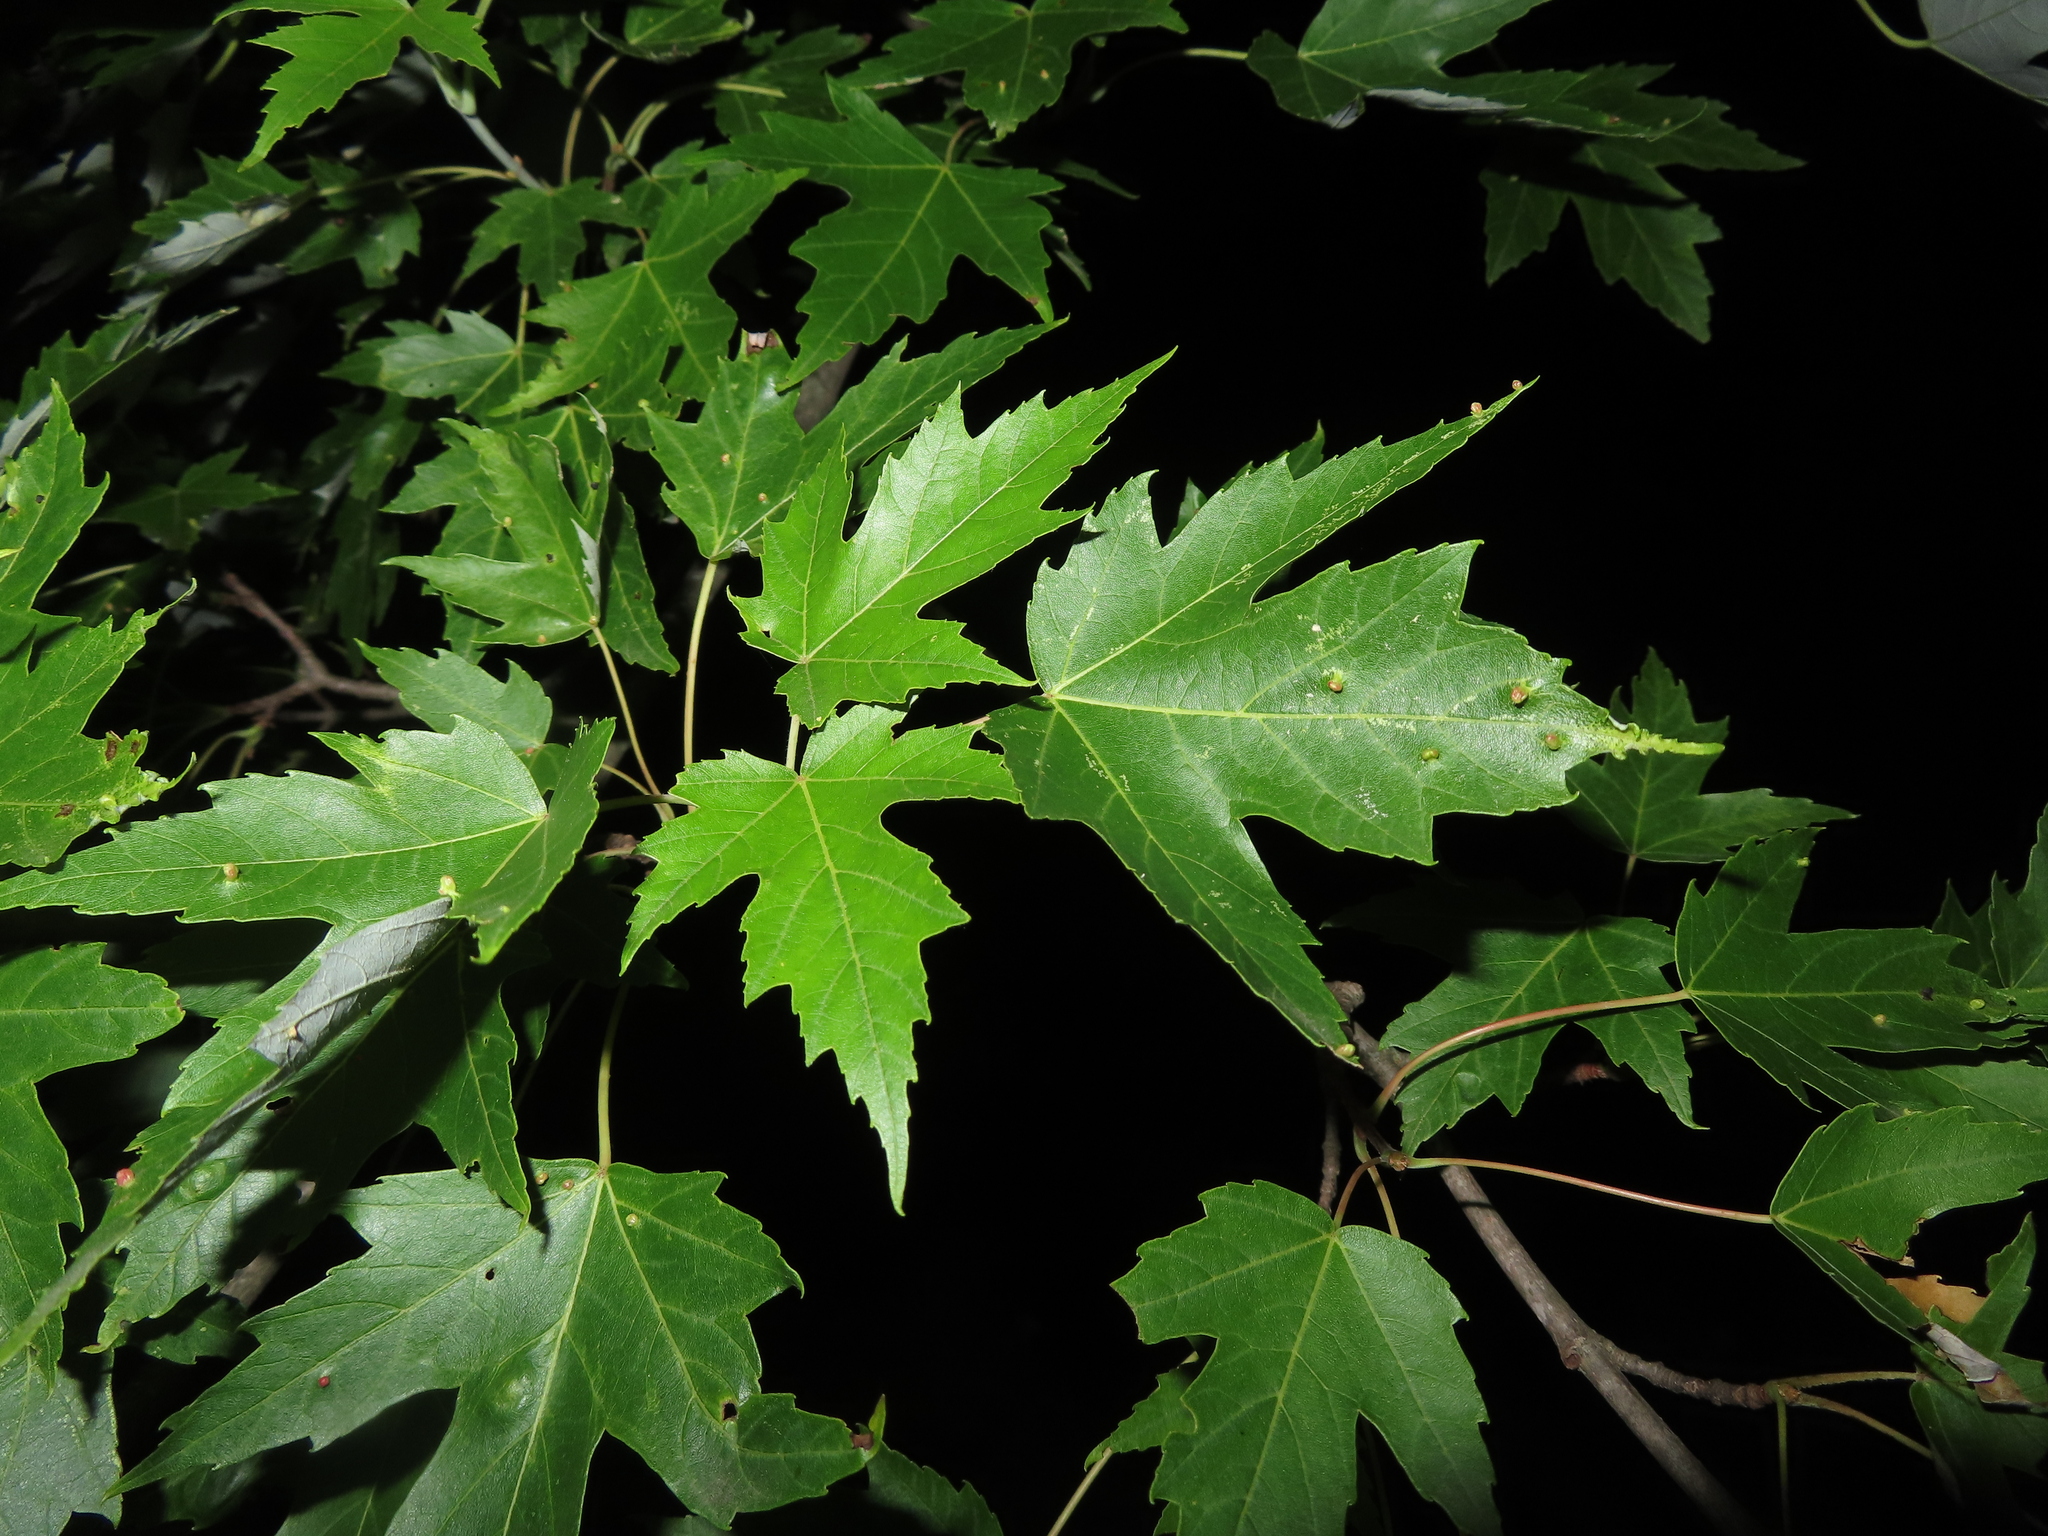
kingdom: Animalia
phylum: Arthropoda
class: Arachnida
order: Trombidiformes
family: Eriophyidae
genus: Vasates
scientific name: Vasates quadripedes
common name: Maple bladder gall mite
